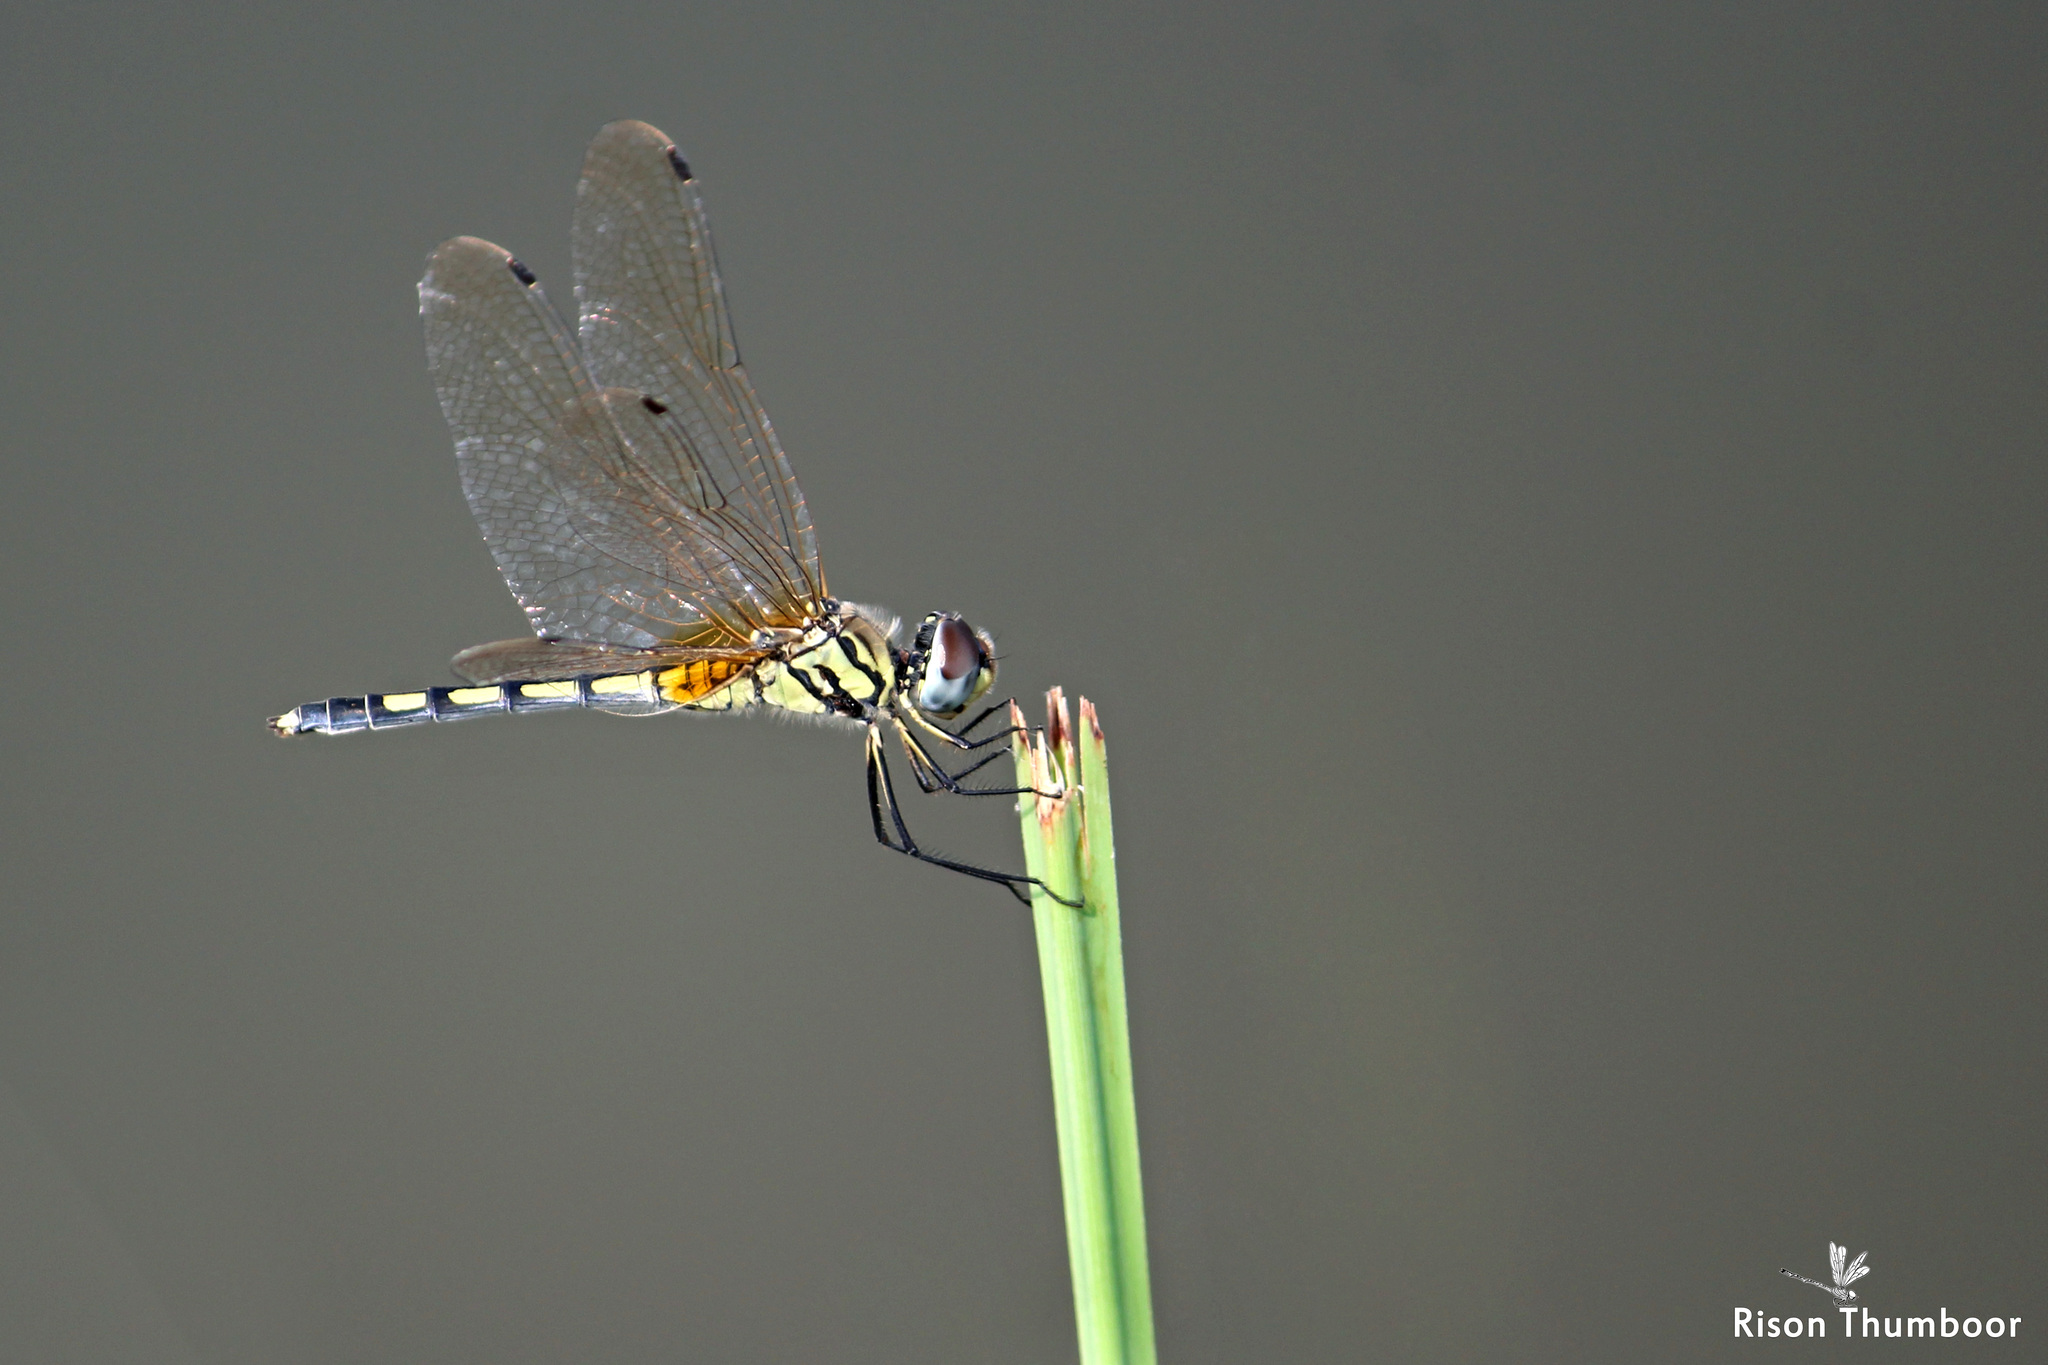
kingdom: Animalia
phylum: Arthropoda
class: Insecta
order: Odonata
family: Libellulidae
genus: Trithemis
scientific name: Trithemis pallidinervis
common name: Dancing dropwing
